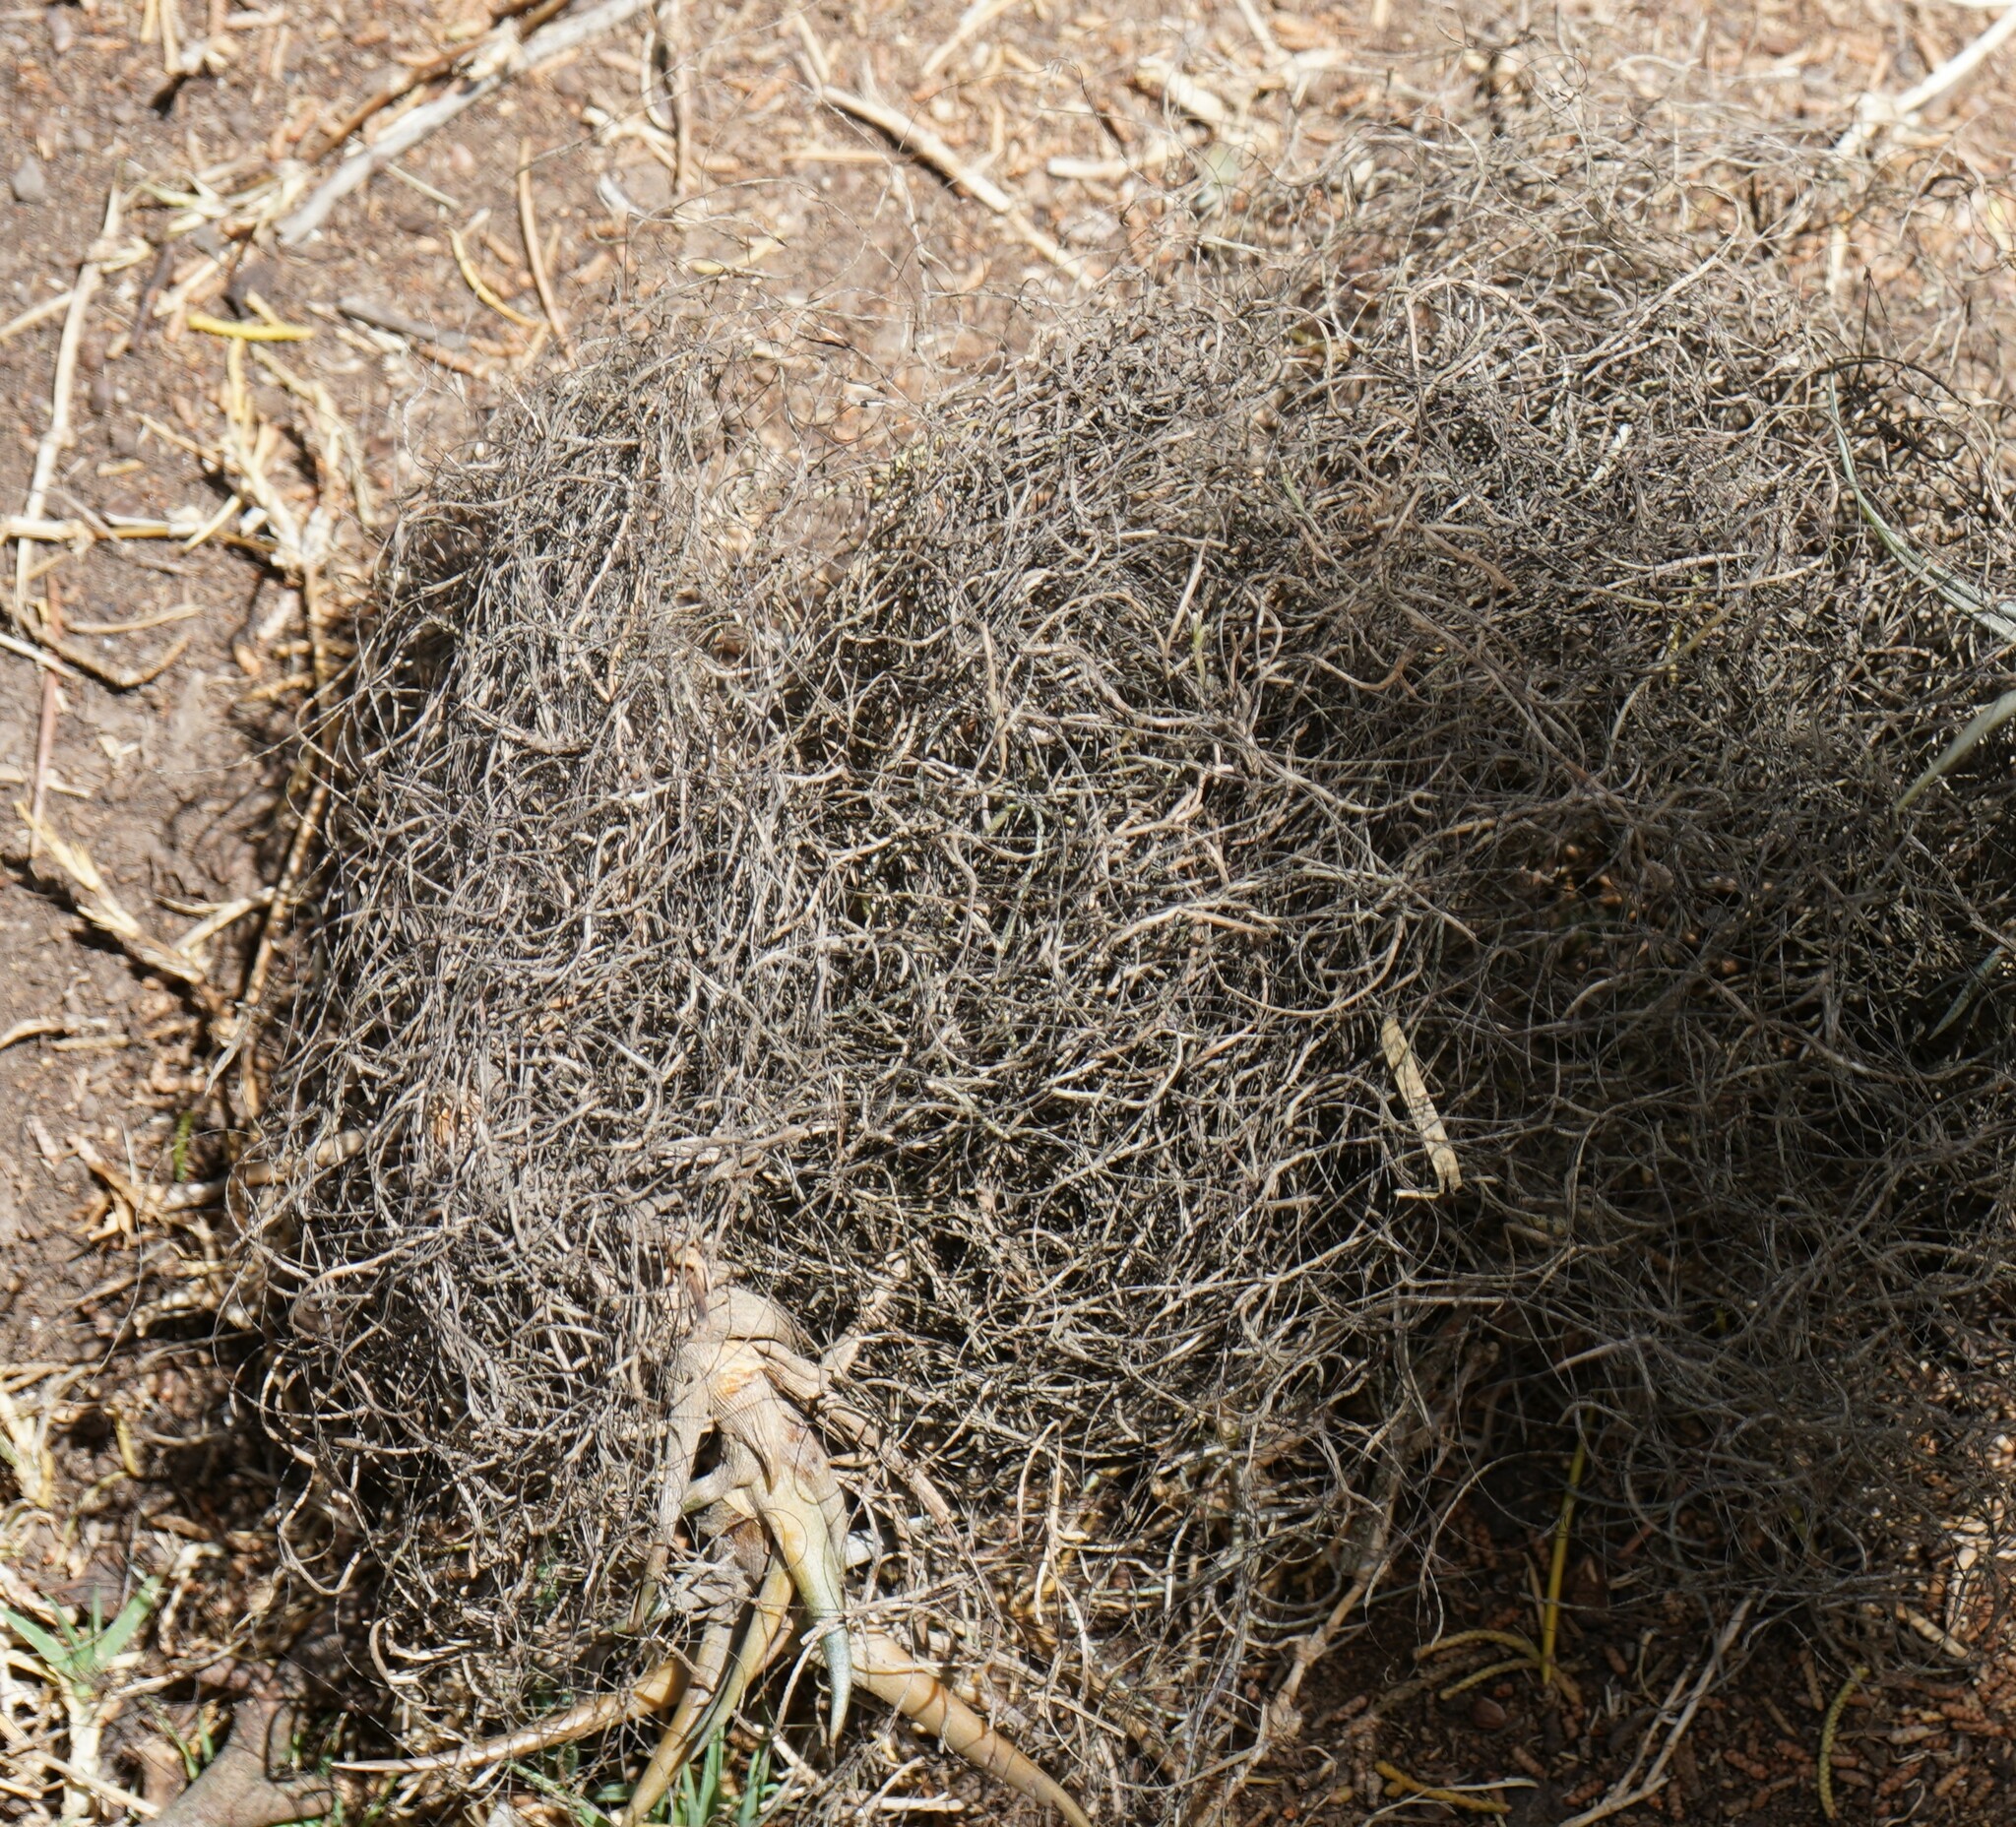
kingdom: Plantae
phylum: Tracheophyta
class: Liliopsida
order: Poales
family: Bromeliaceae
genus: Tillandsia
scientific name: Tillandsia usneoides
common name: Spanish moss
